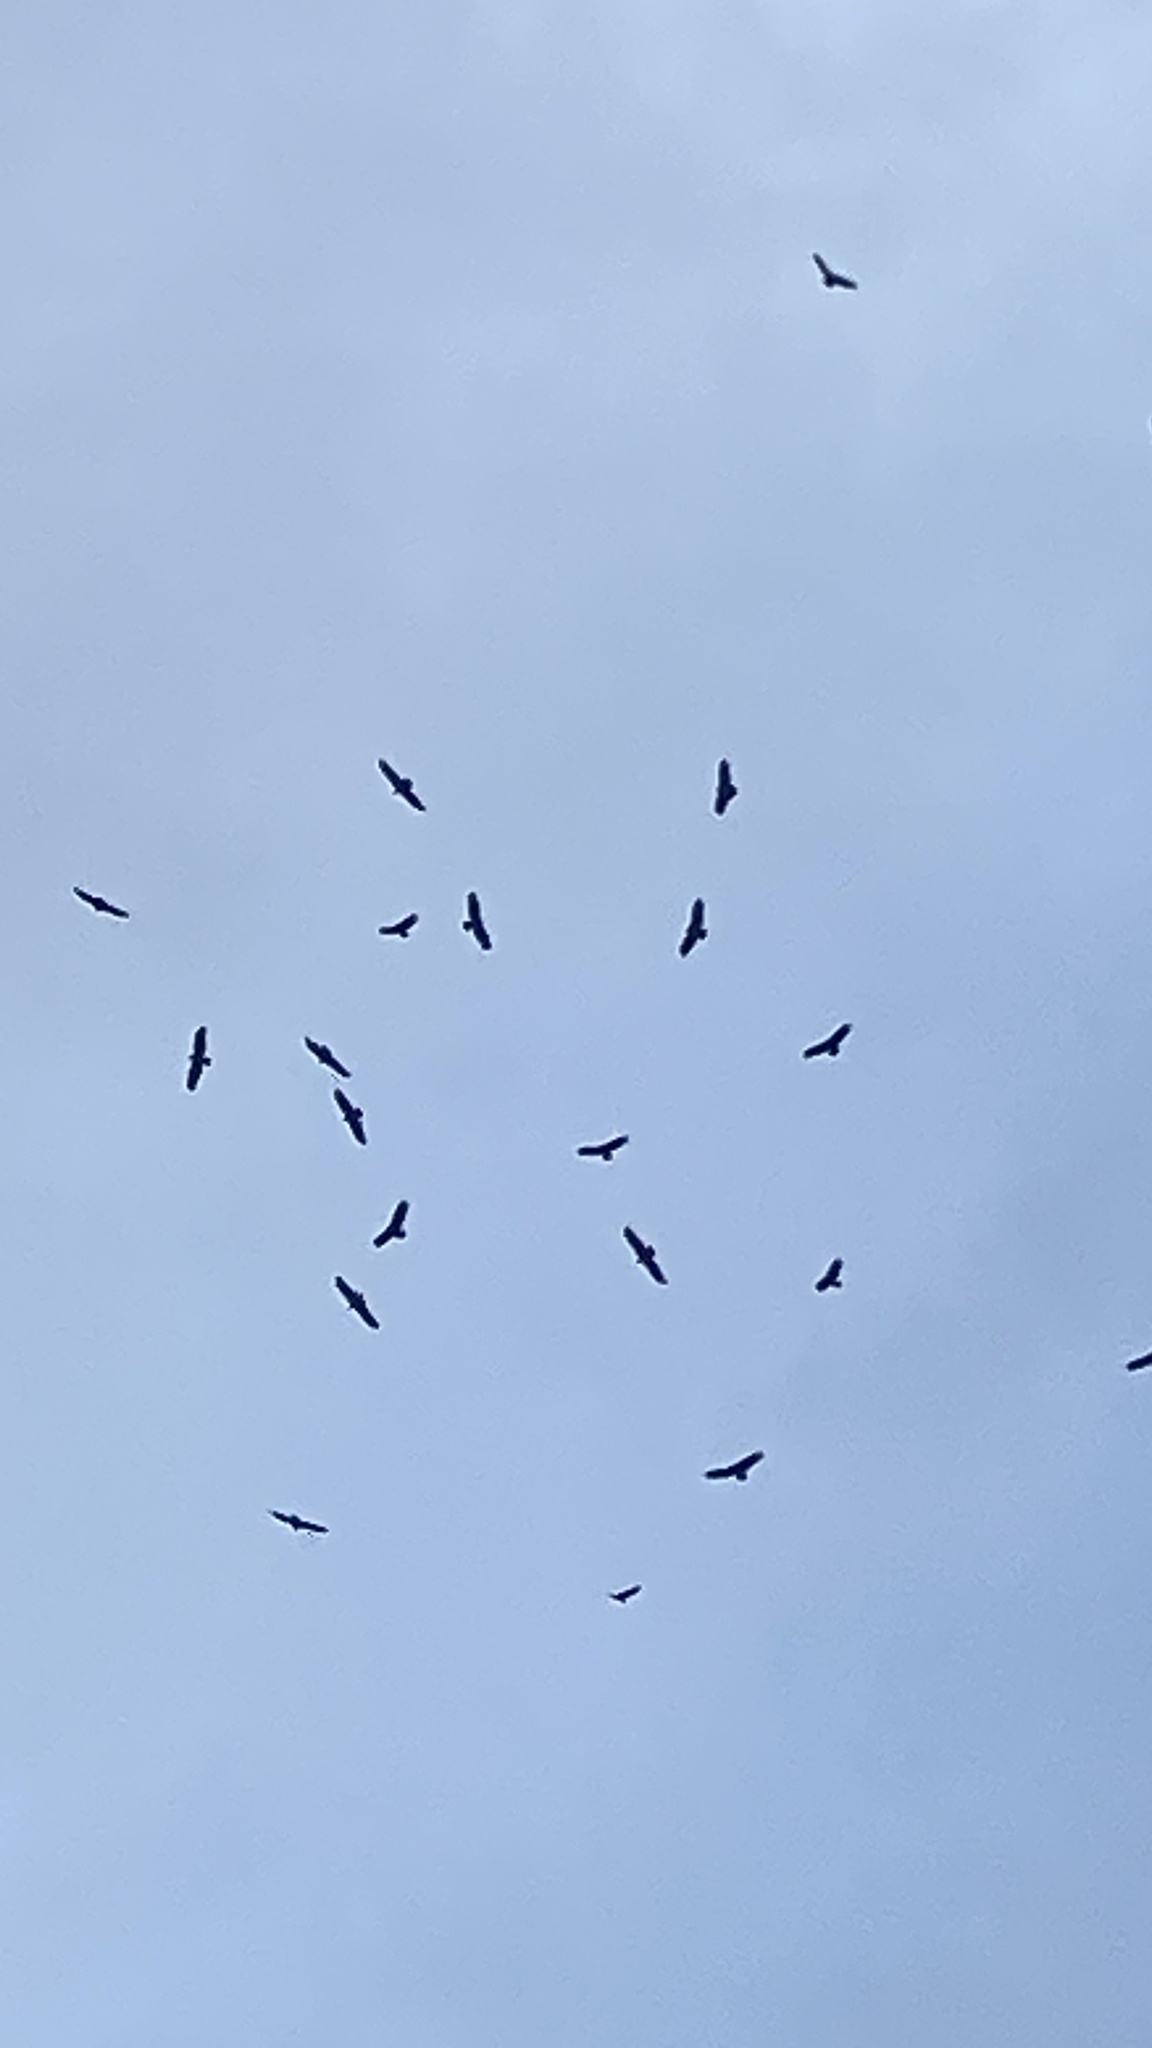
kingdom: Animalia
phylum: Chordata
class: Aves
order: Accipitriformes
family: Cathartidae
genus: Cathartes
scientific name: Cathartes aura
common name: Turkey vulture
